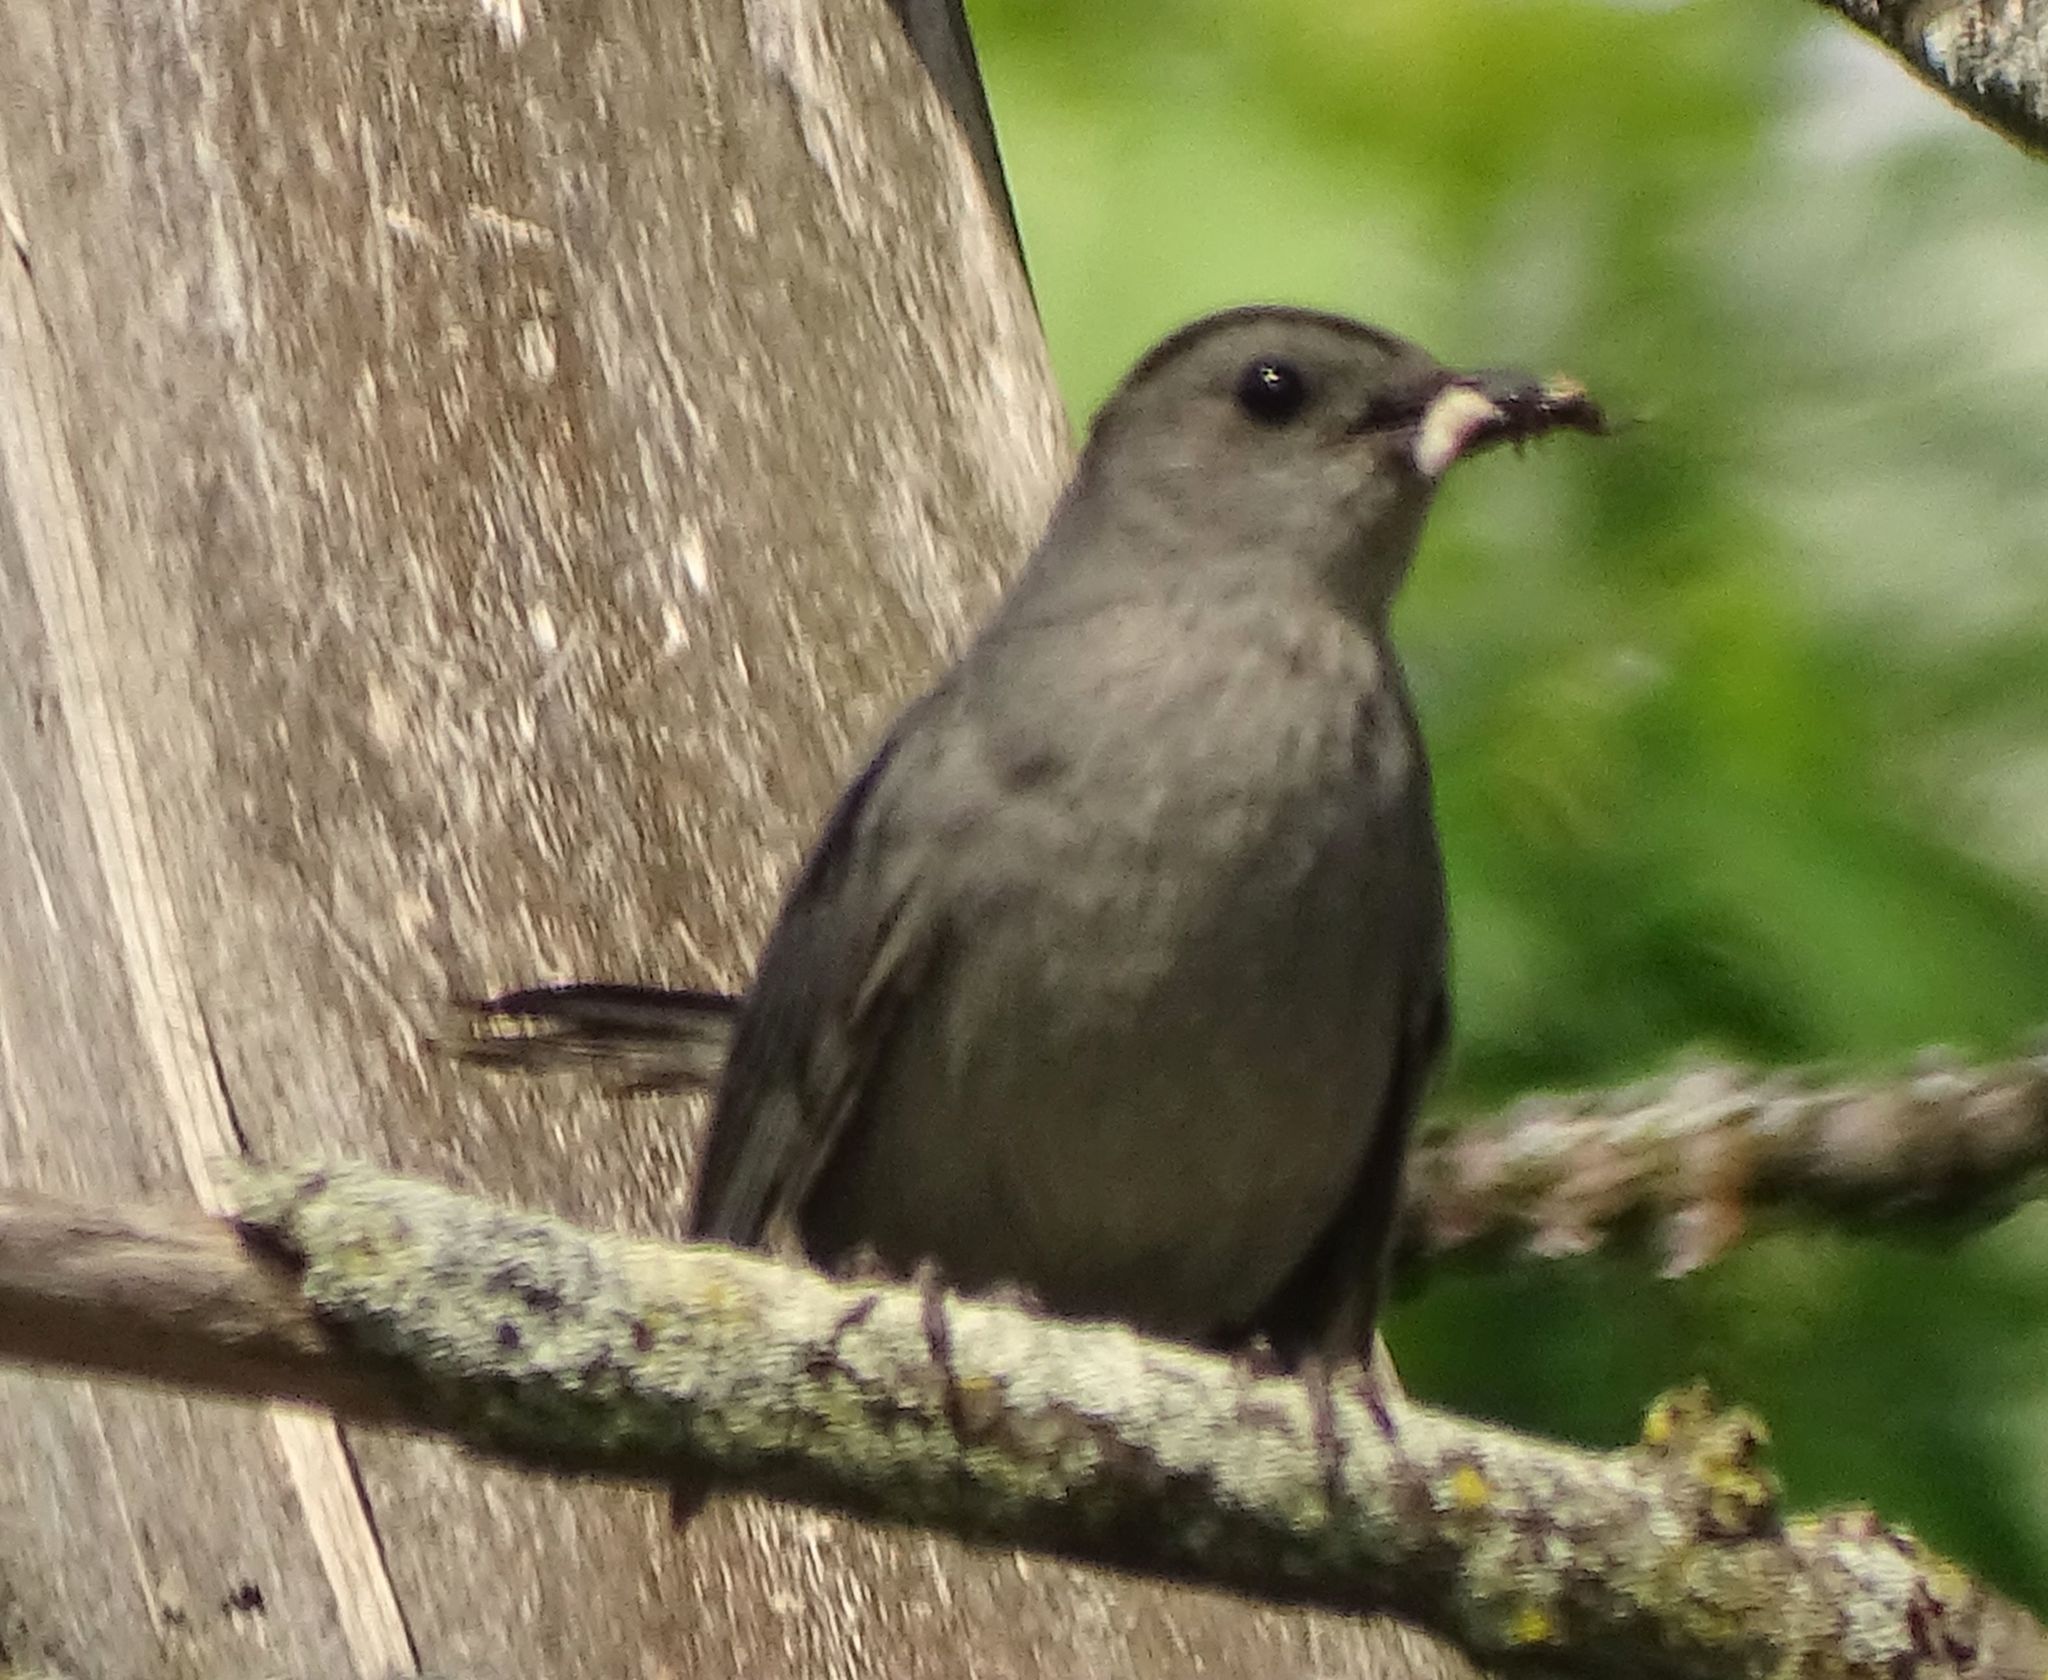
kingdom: Animalia
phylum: Chordata
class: Aves
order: Passeriformes
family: Mimidae
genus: Dumetella
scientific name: Dumetella carolinensis
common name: Gray catbird
